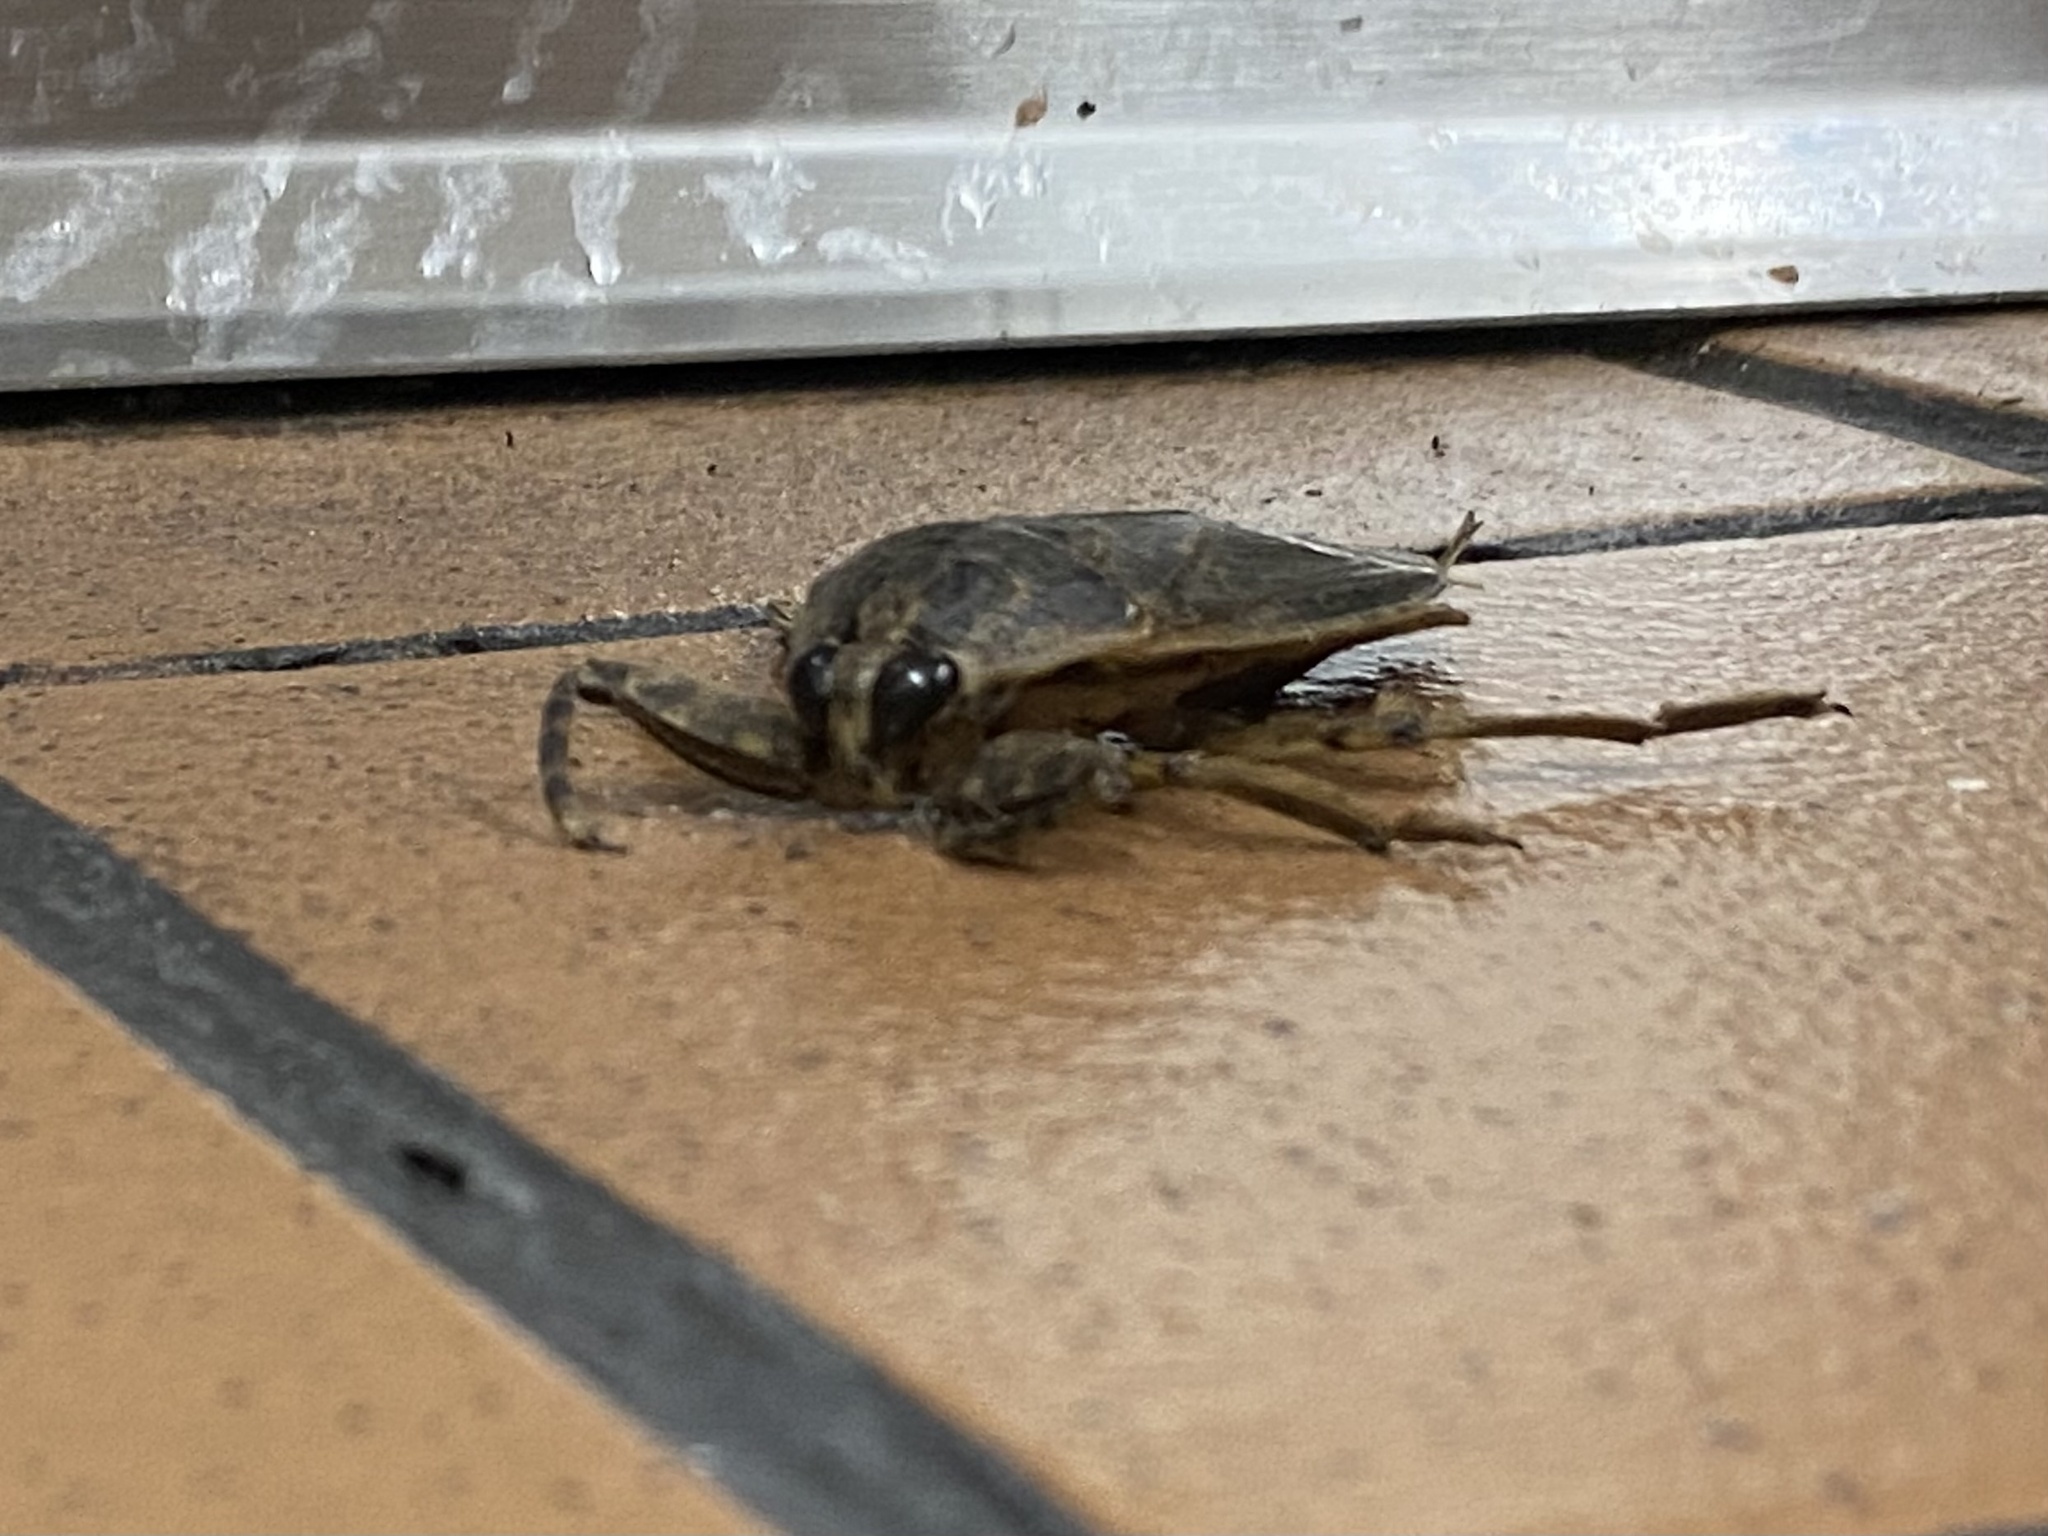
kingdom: Animalia
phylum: Arthropoda
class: Insecta
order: Hemiptera
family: Belostomatidae
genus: Lethocerus
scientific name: Lethocerus medius
